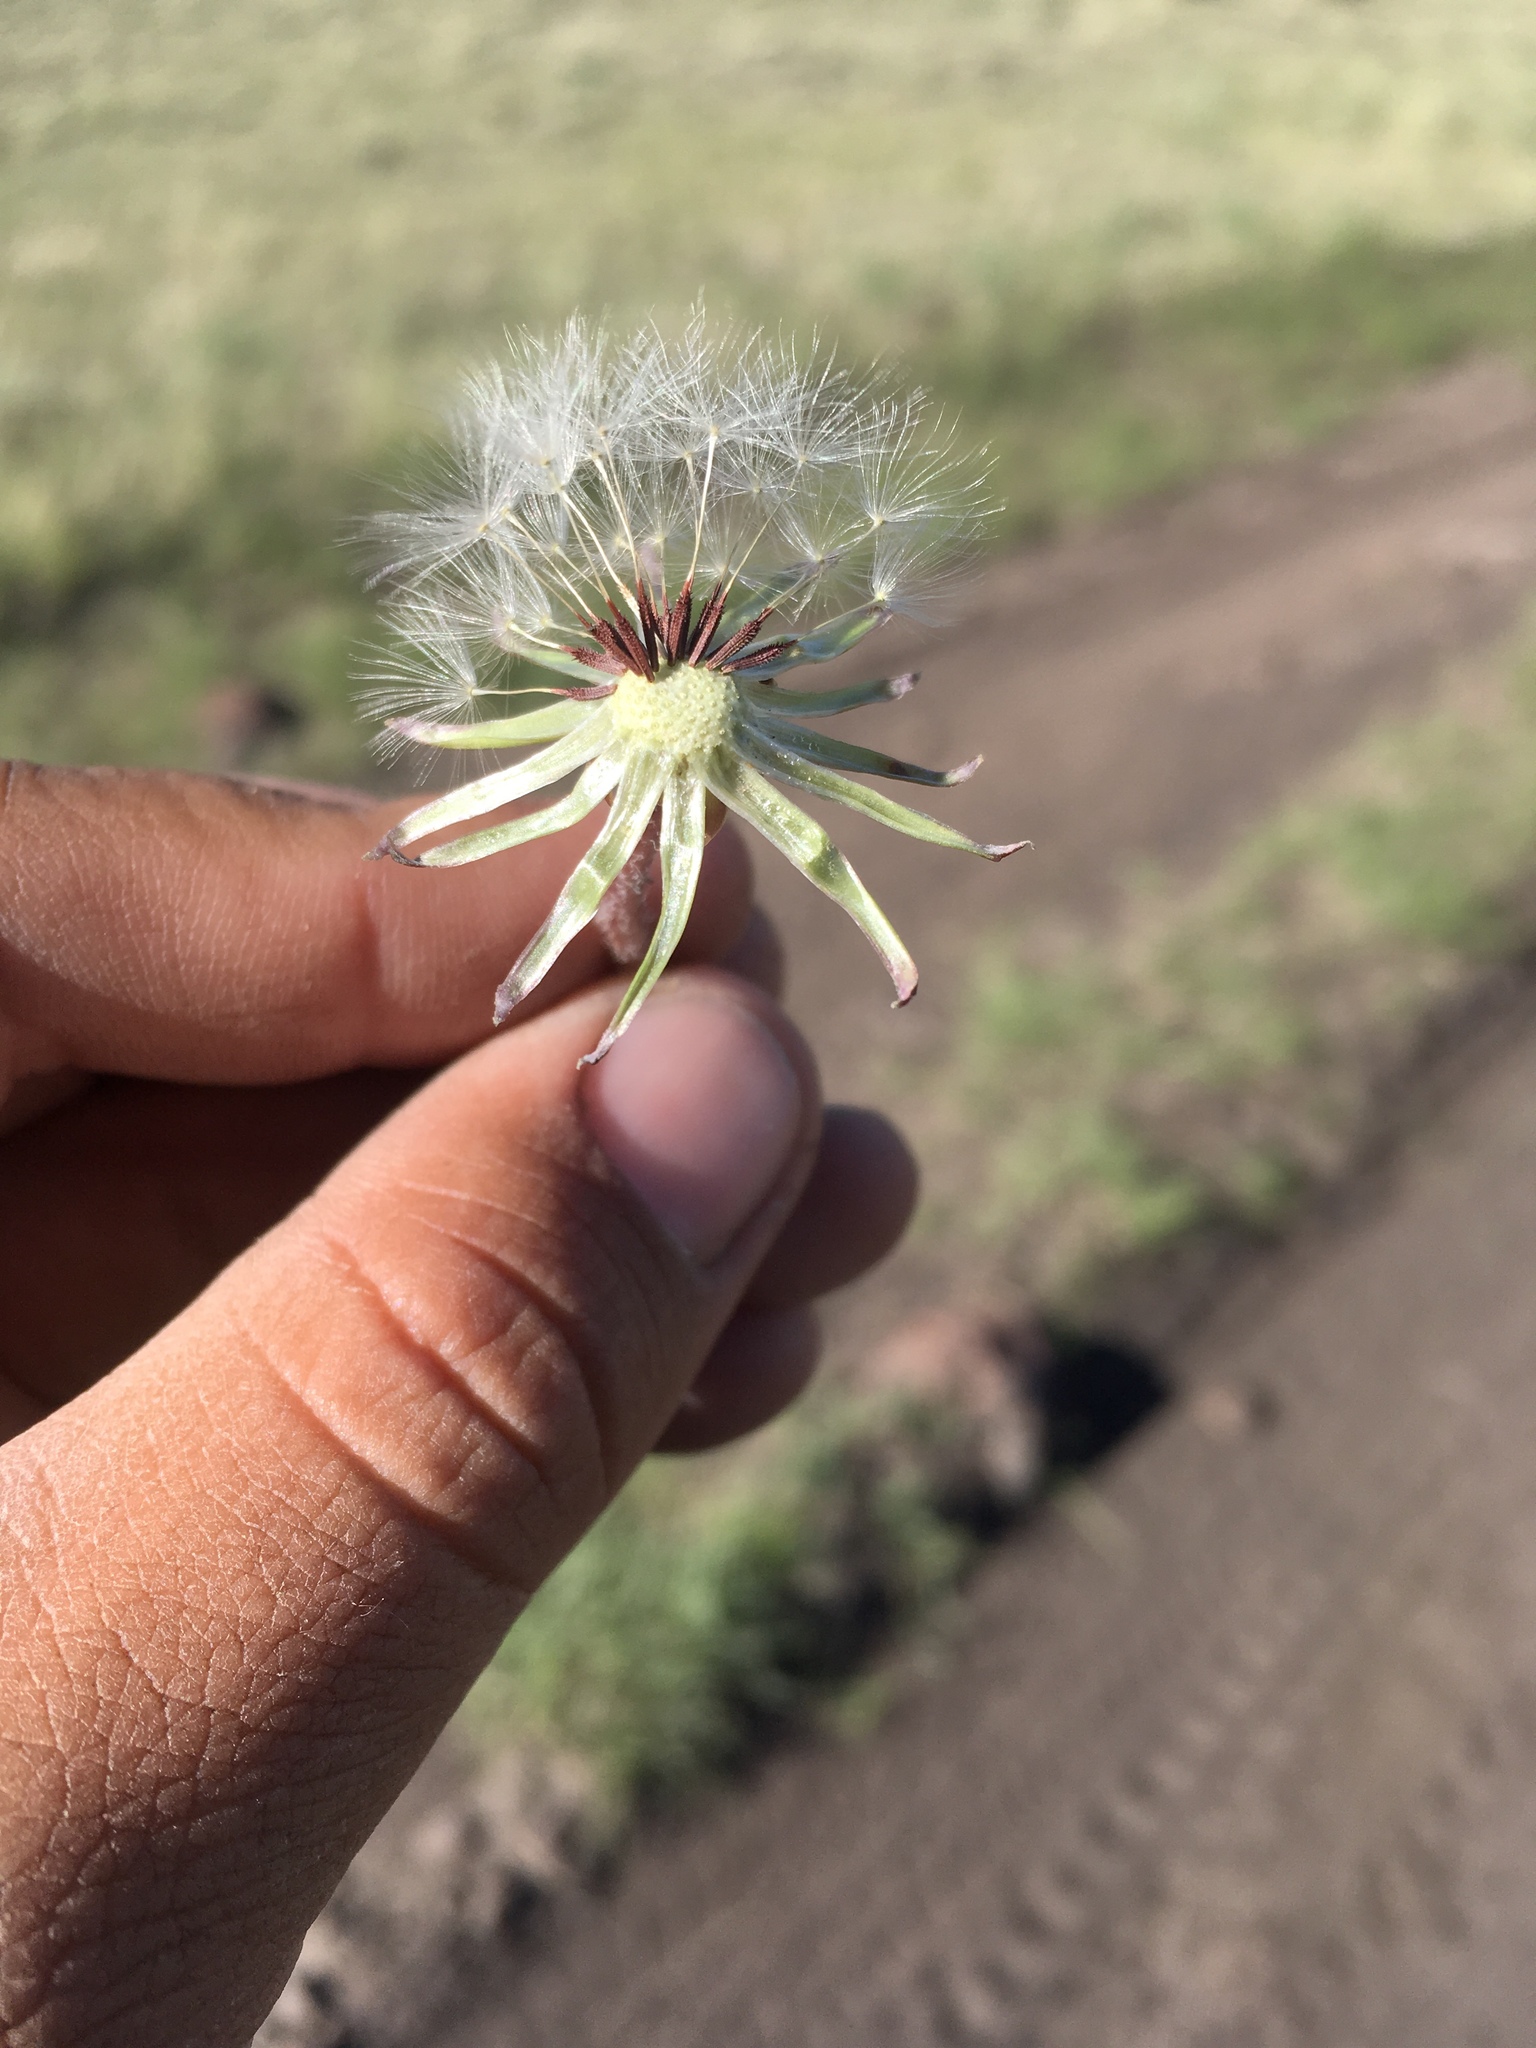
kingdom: Plantae
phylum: Tracheophyta
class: Magnoliopsida
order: Asterales
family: Asteraceae
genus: Taraxacum
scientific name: Taraxacum erythrospermum
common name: Rock dandelion
